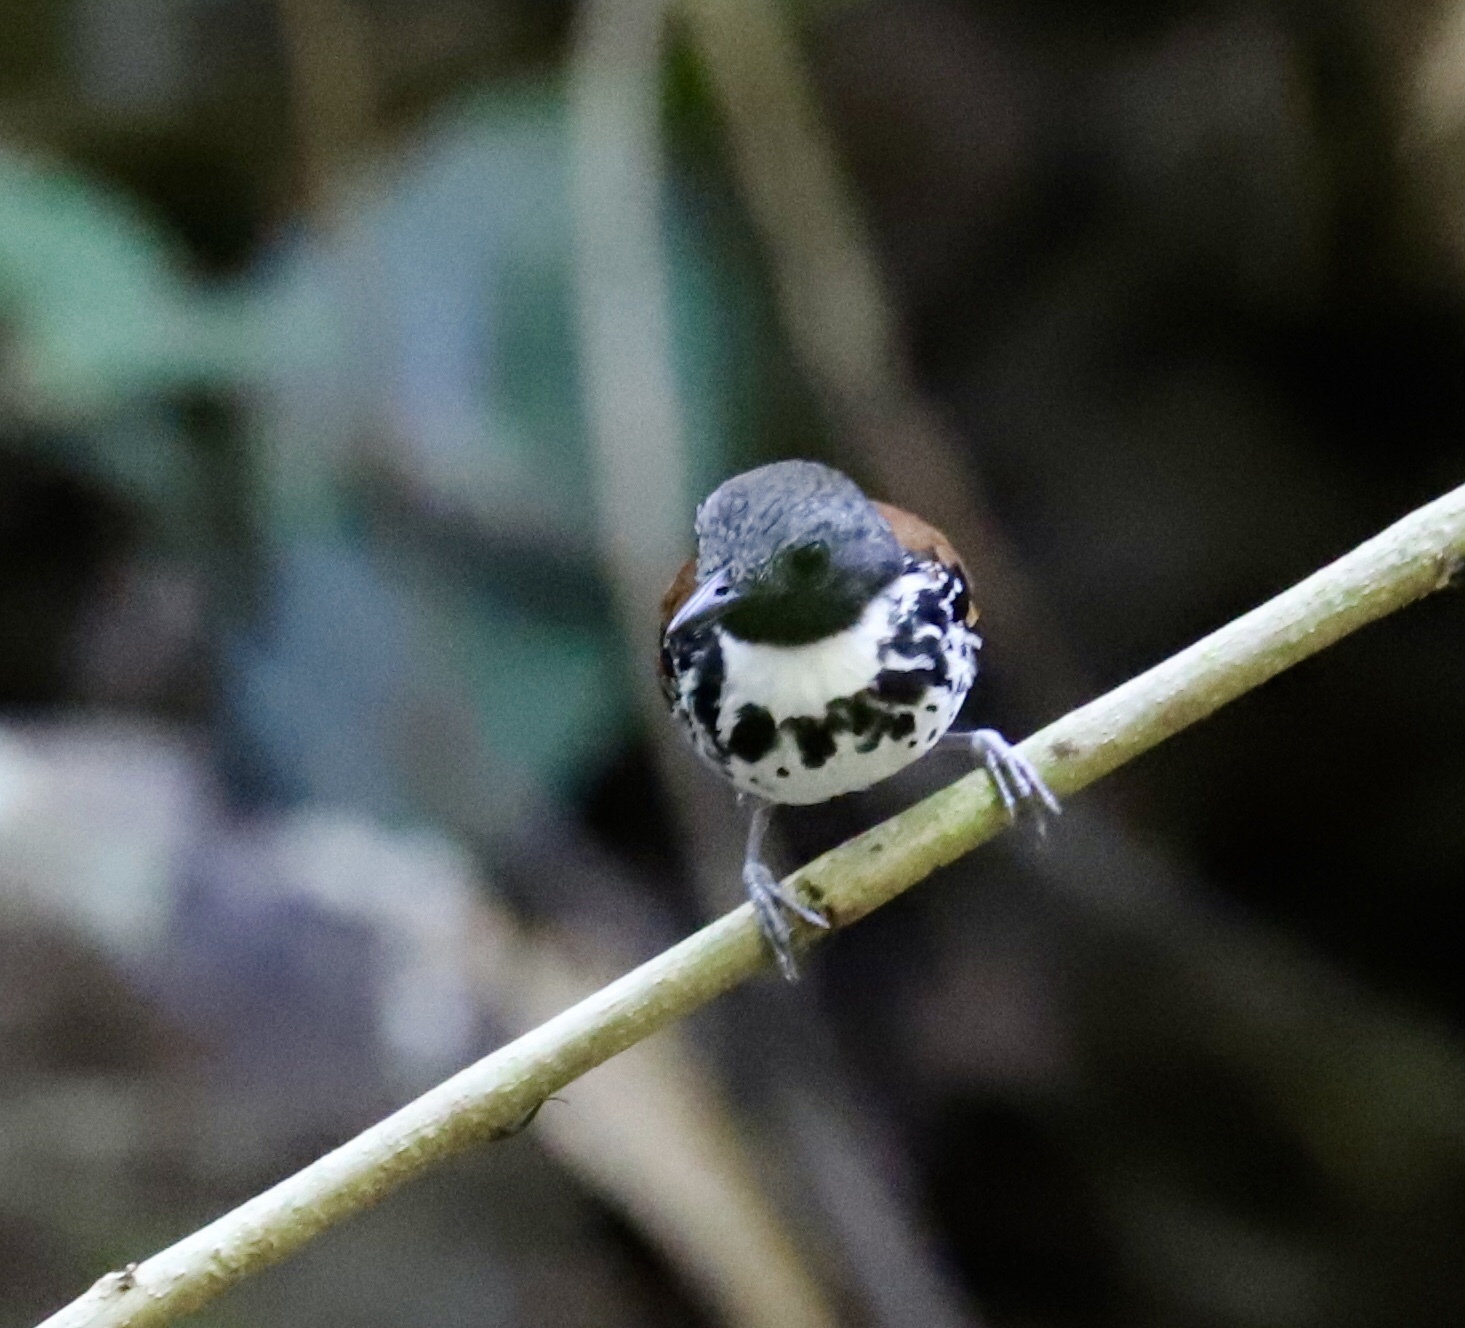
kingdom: Animalia
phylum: Chordata
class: Aves
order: Passeriformes
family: Thamnophilidae
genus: Hylophylax
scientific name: Hylophylax naevioides
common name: Spotted antbird
